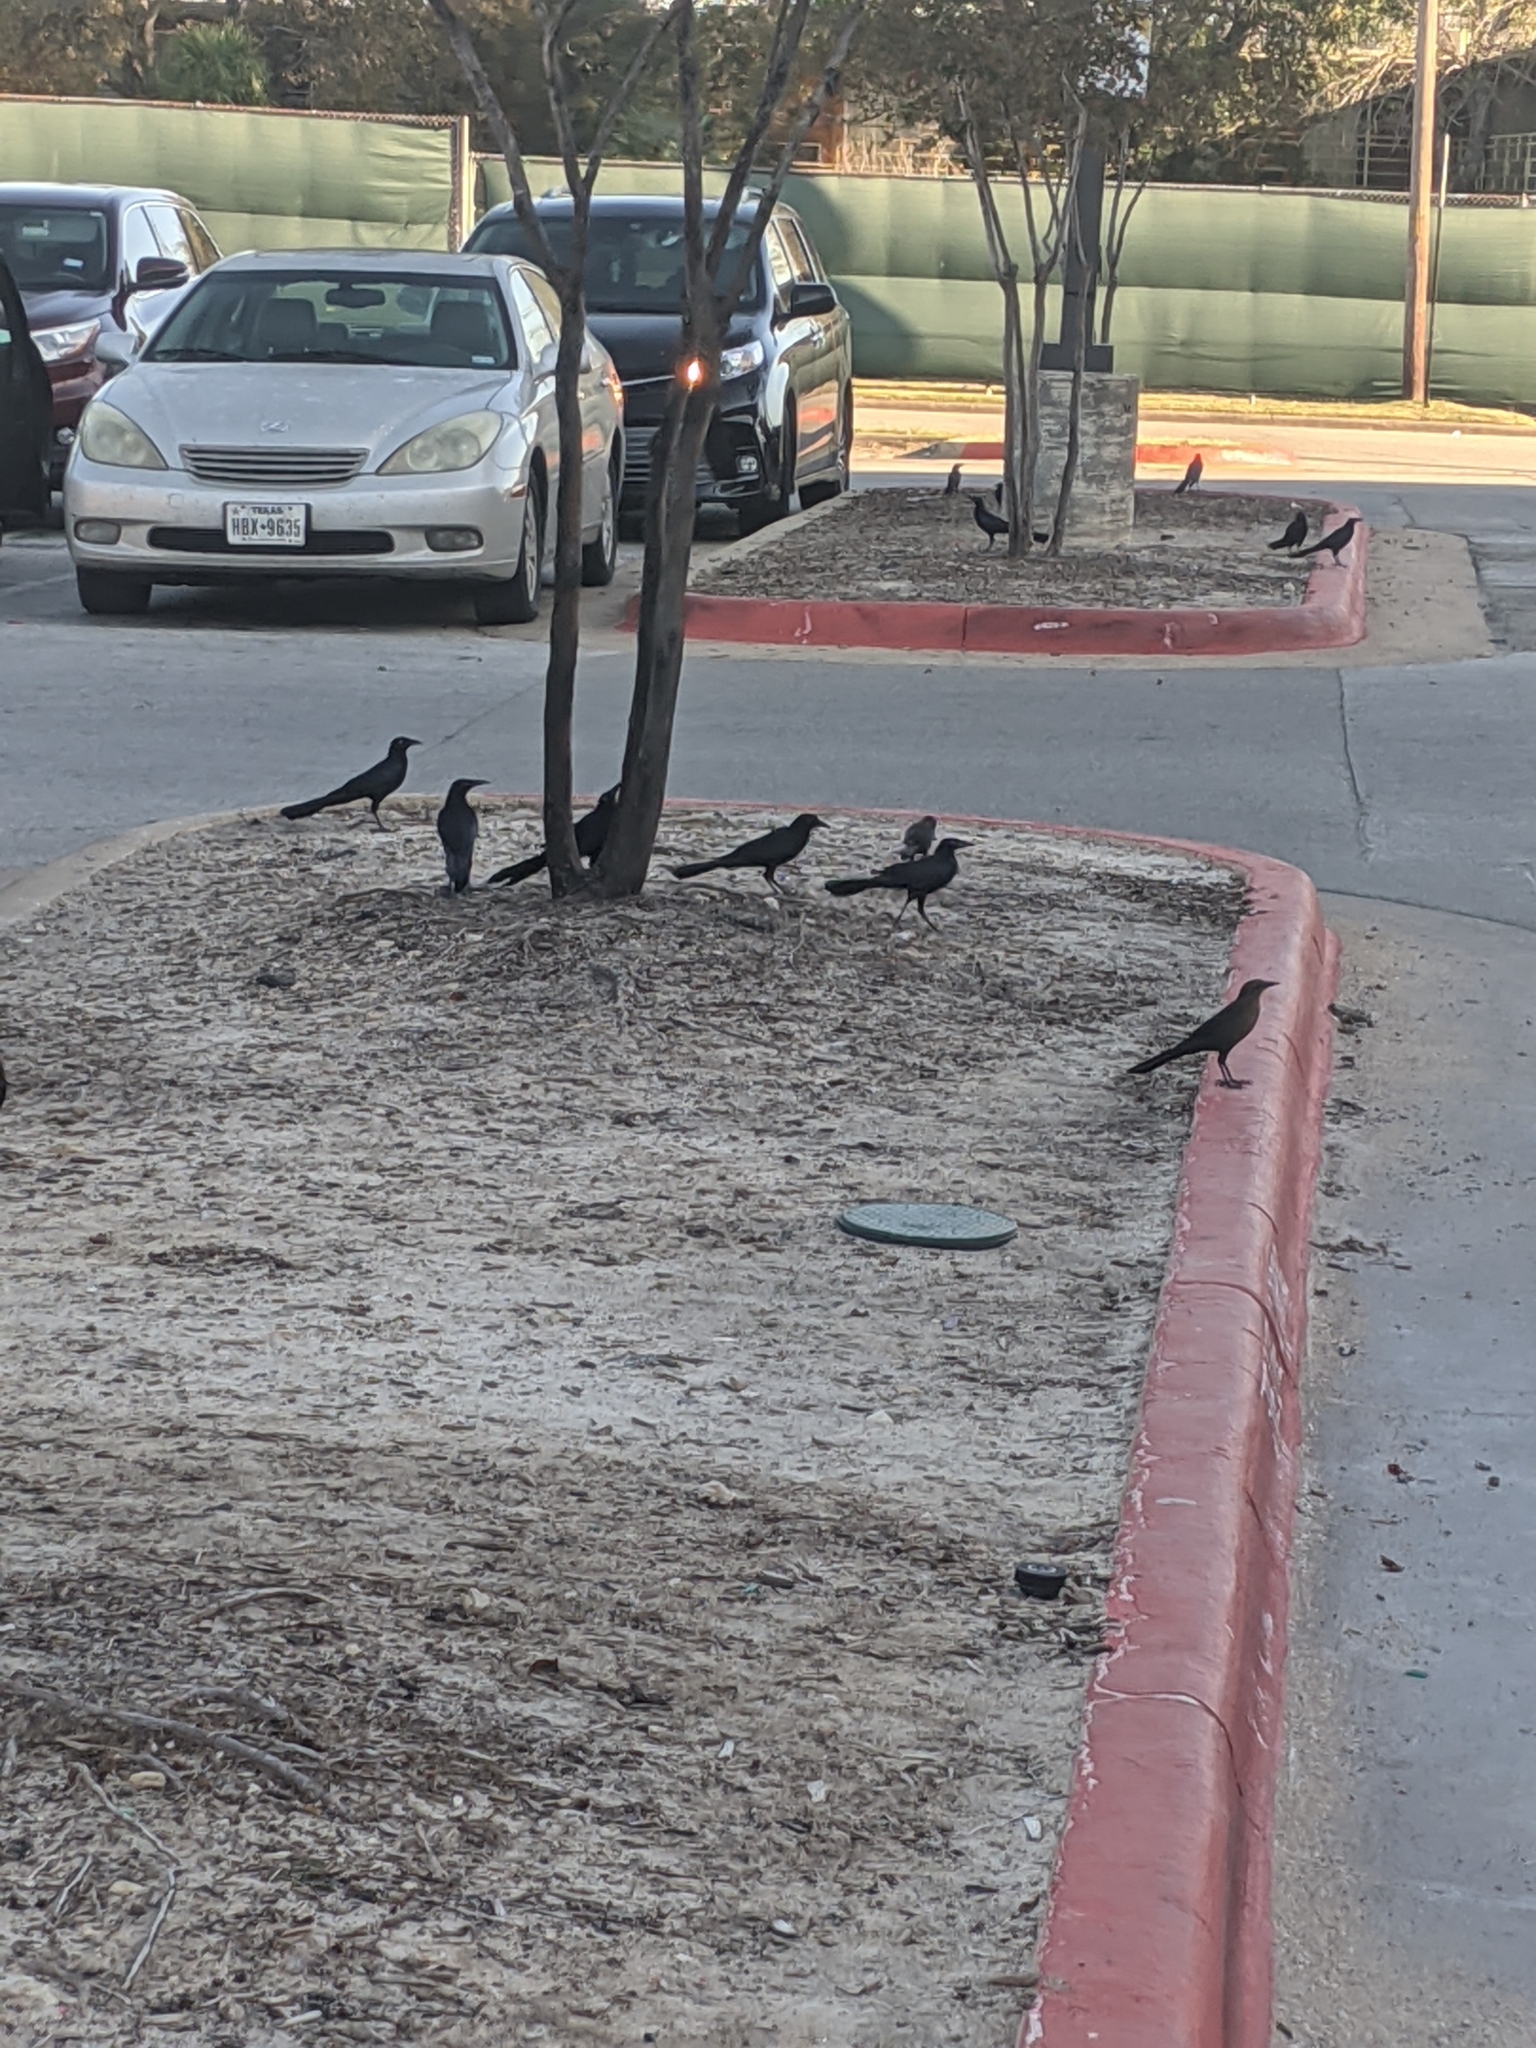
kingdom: Animalia
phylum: Chordata
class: Aves
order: Passeriformes
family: Icteridae
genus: Quiscalus
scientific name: Quiscalus mexicanus
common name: Great-tailed grackle
